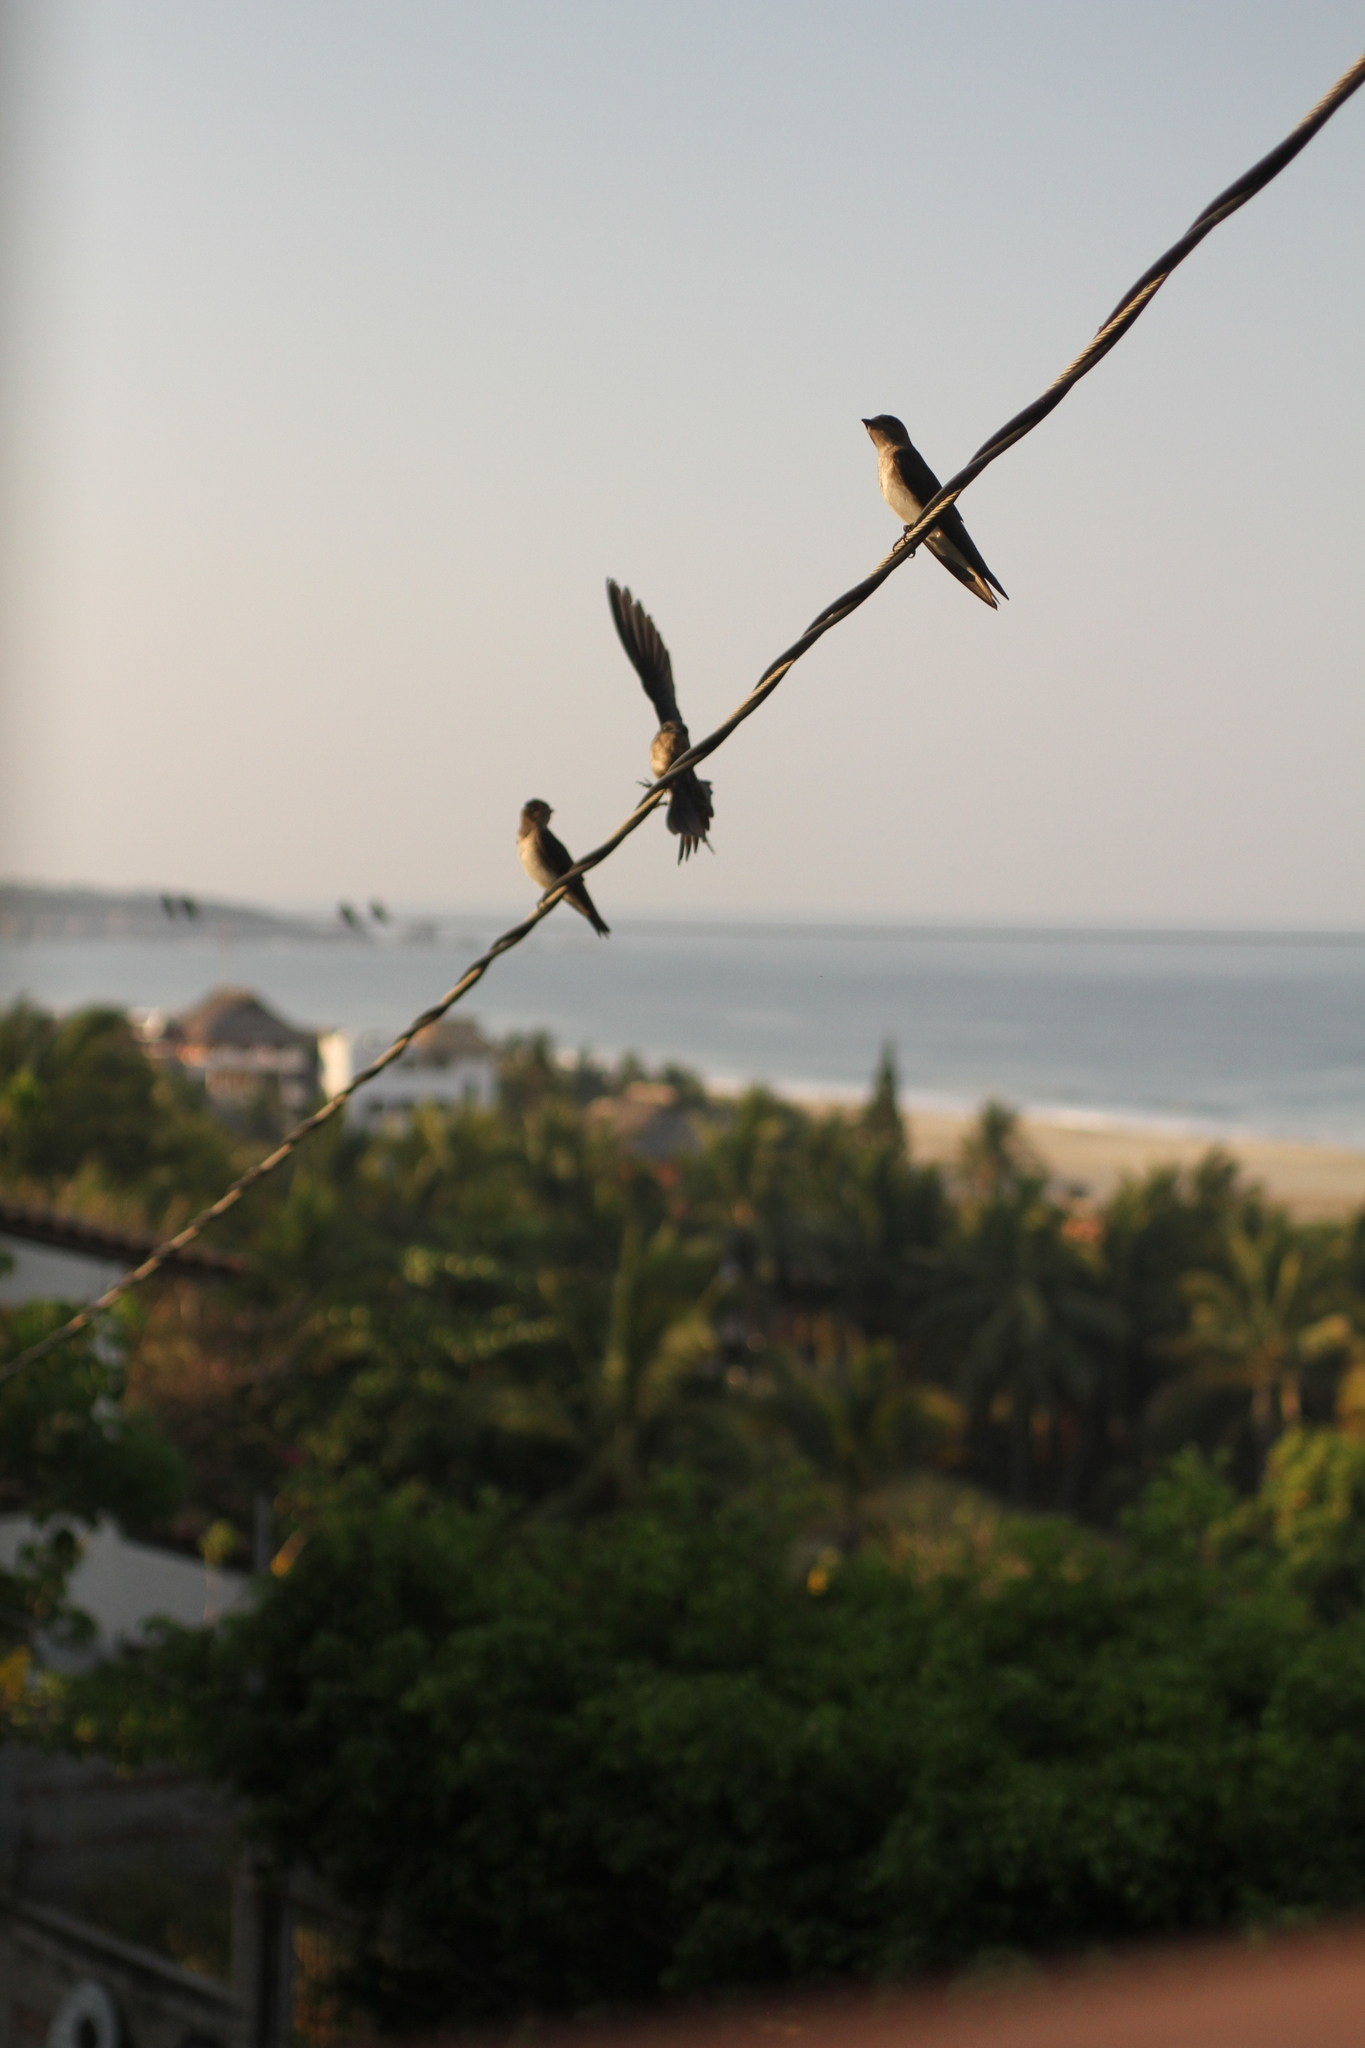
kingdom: Animalia
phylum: Chordata
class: Aves
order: Passeriformes
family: Hirundinidae
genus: Progne
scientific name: Progne chalybea
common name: Grey-breasted martin
